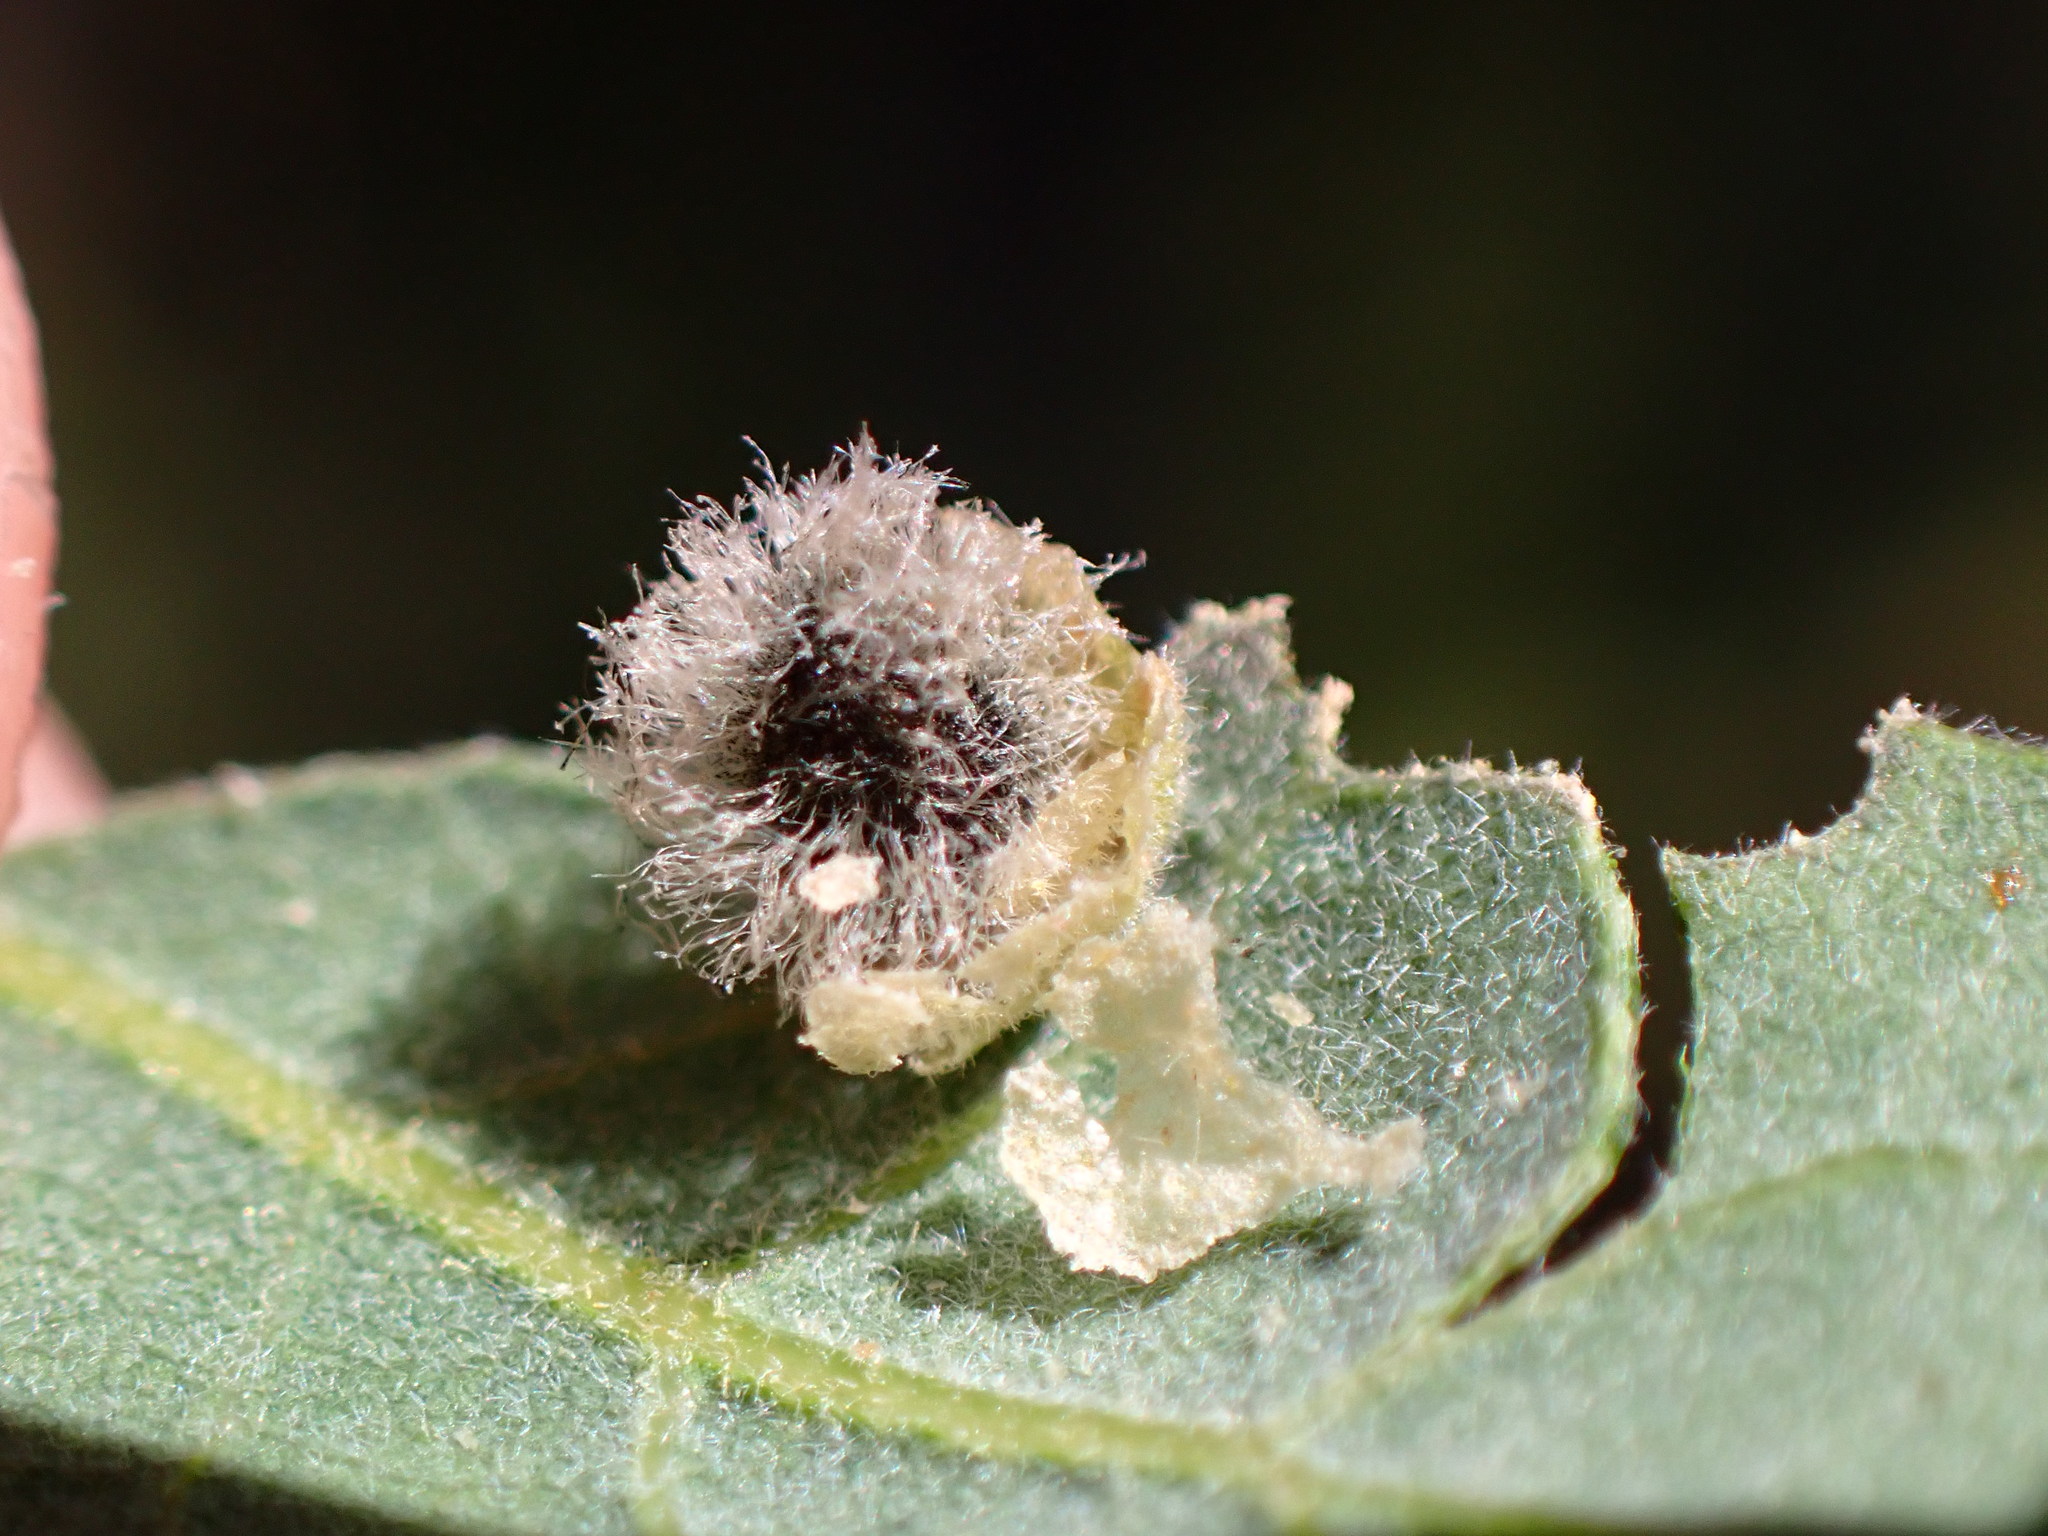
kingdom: Animalia
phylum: Arthropoda
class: Insecta
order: Hymenoptera
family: Cynipidae
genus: Andricus
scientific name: Andricus
